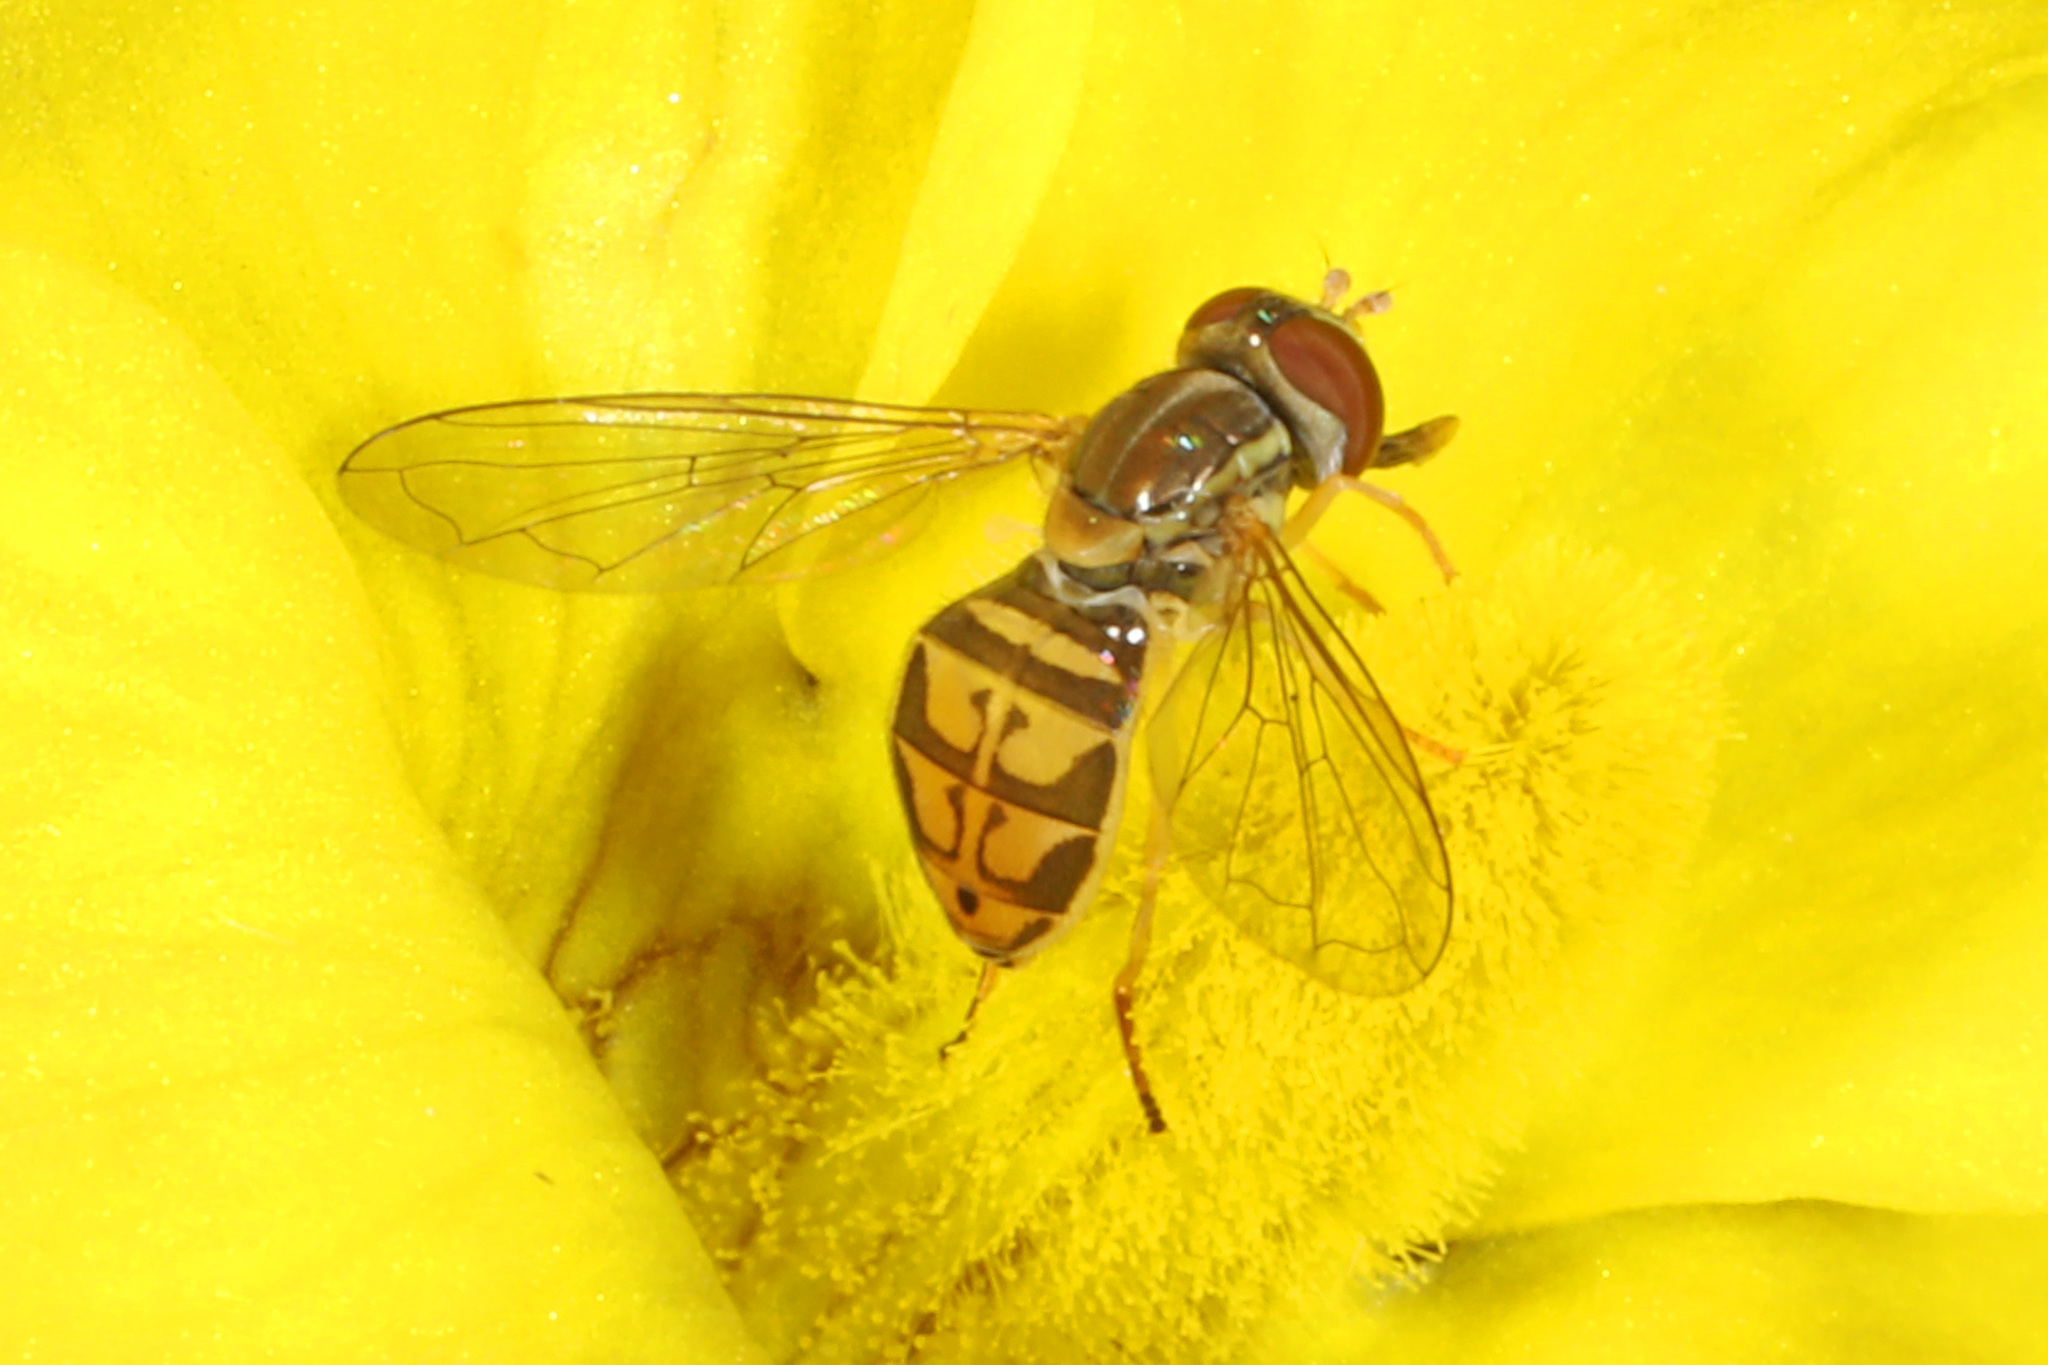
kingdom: Animalia
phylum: Arthropoda
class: Insecta
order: Diptera
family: Syrphidae
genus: Toxomerus
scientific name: Toxomerus marginatus
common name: Syrphid fly
